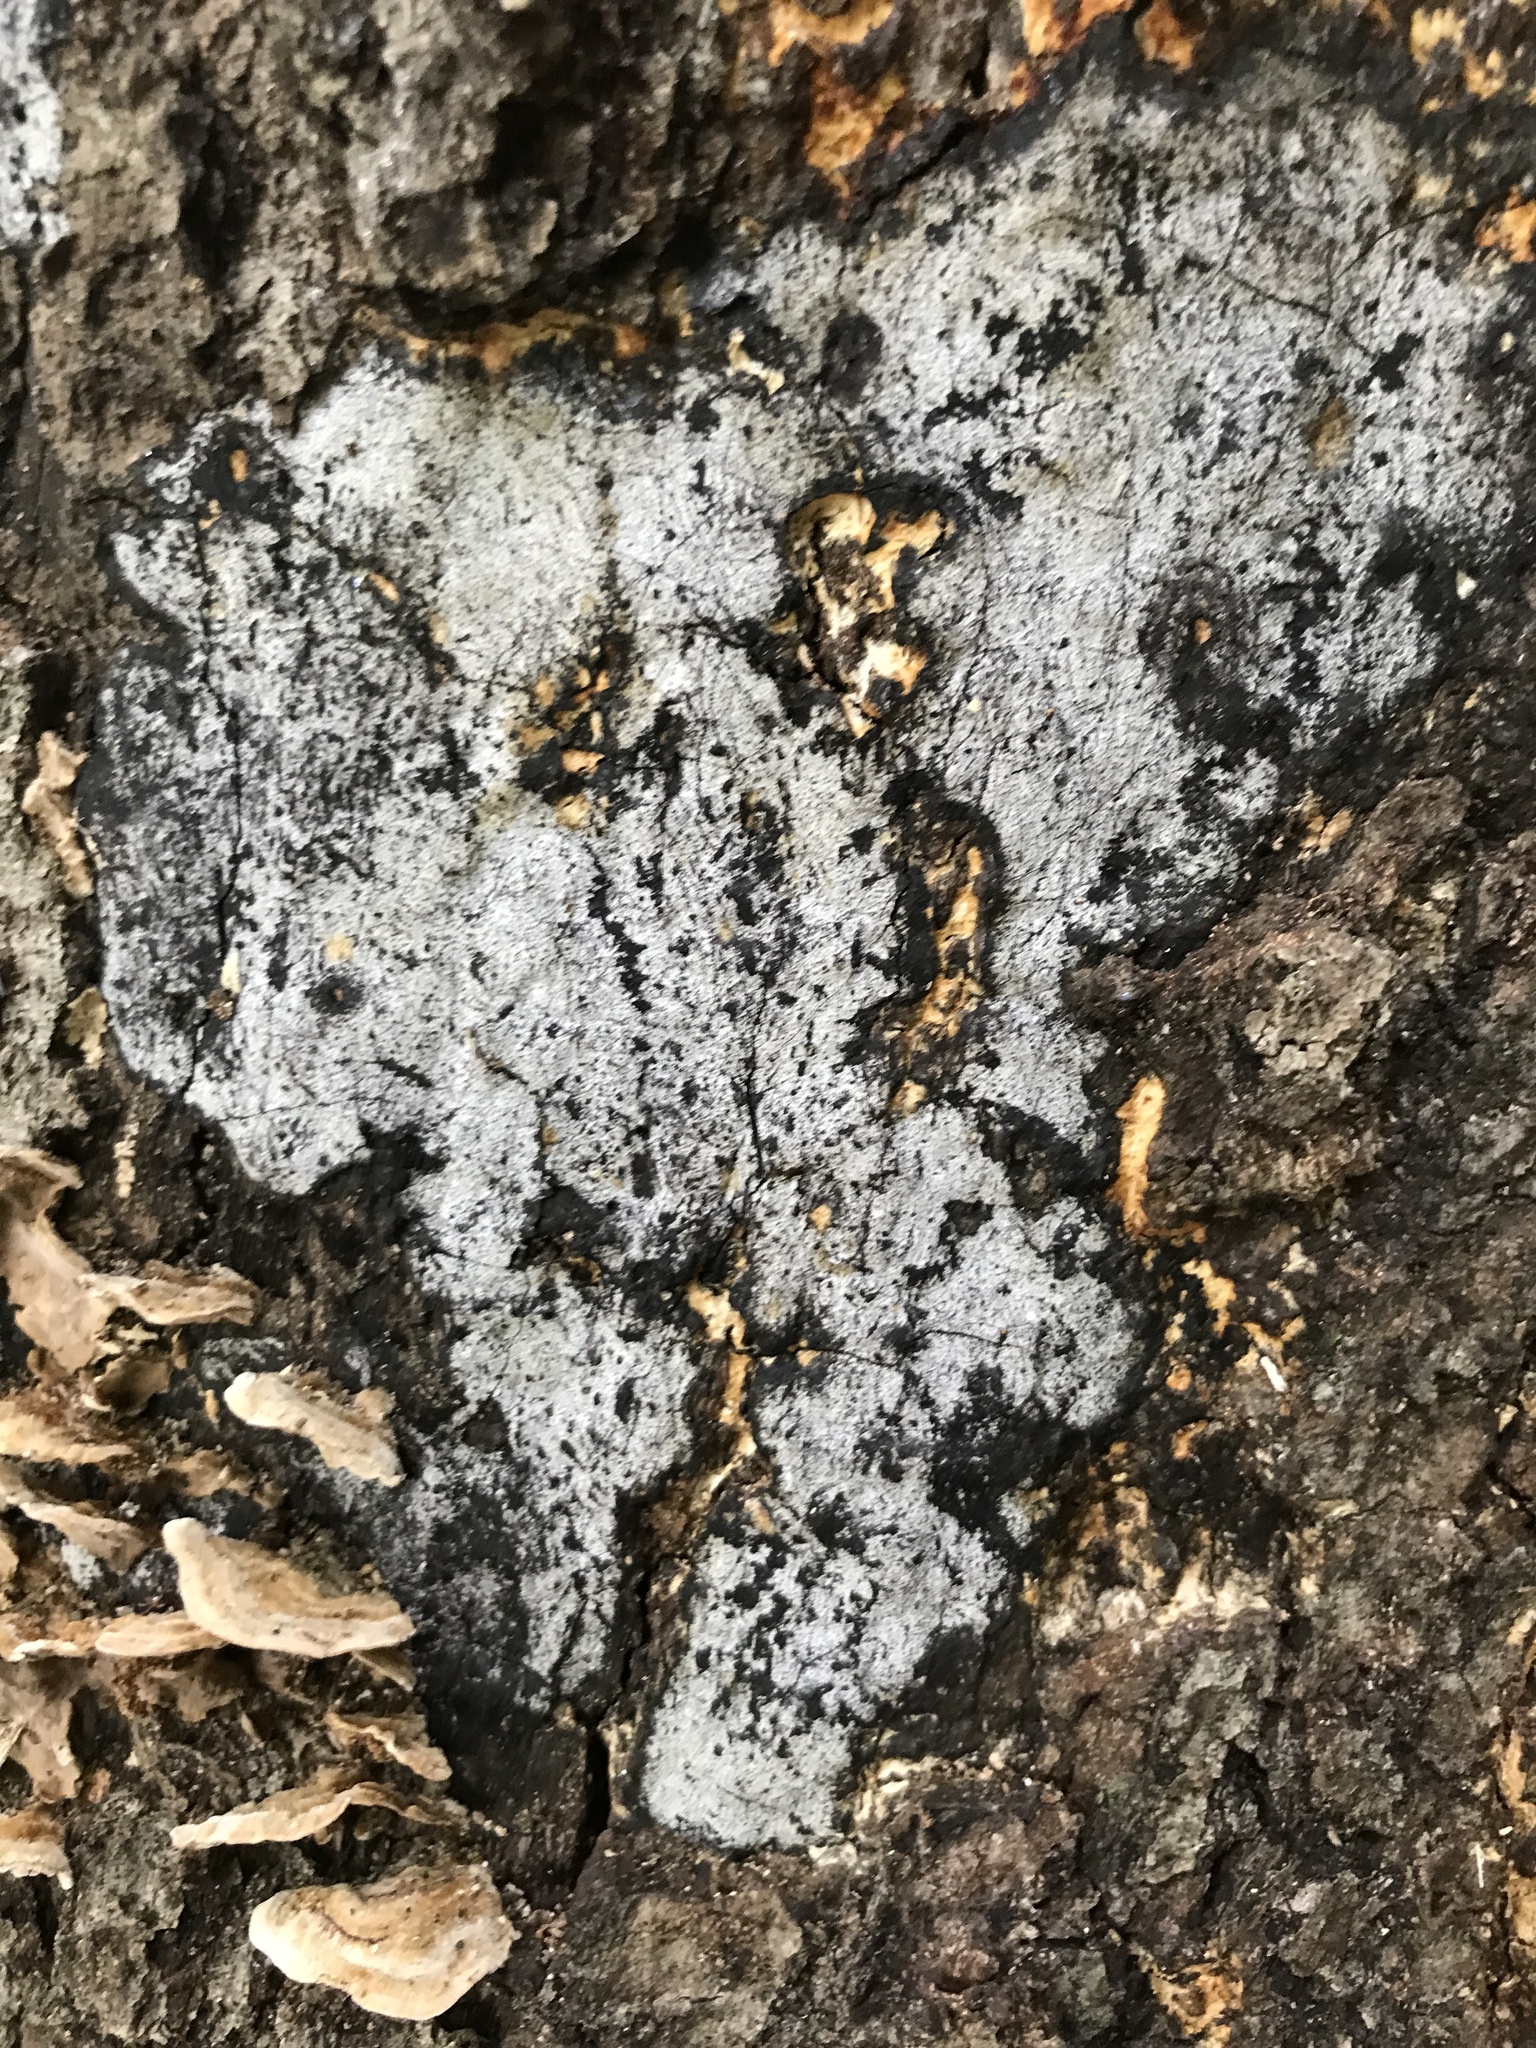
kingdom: Fungi
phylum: Ascomycota
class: Sordariomycetes
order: Xylariales
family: Graphostromataceae
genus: Biscogniauxia
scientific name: Biscogniauxia atropunctata
